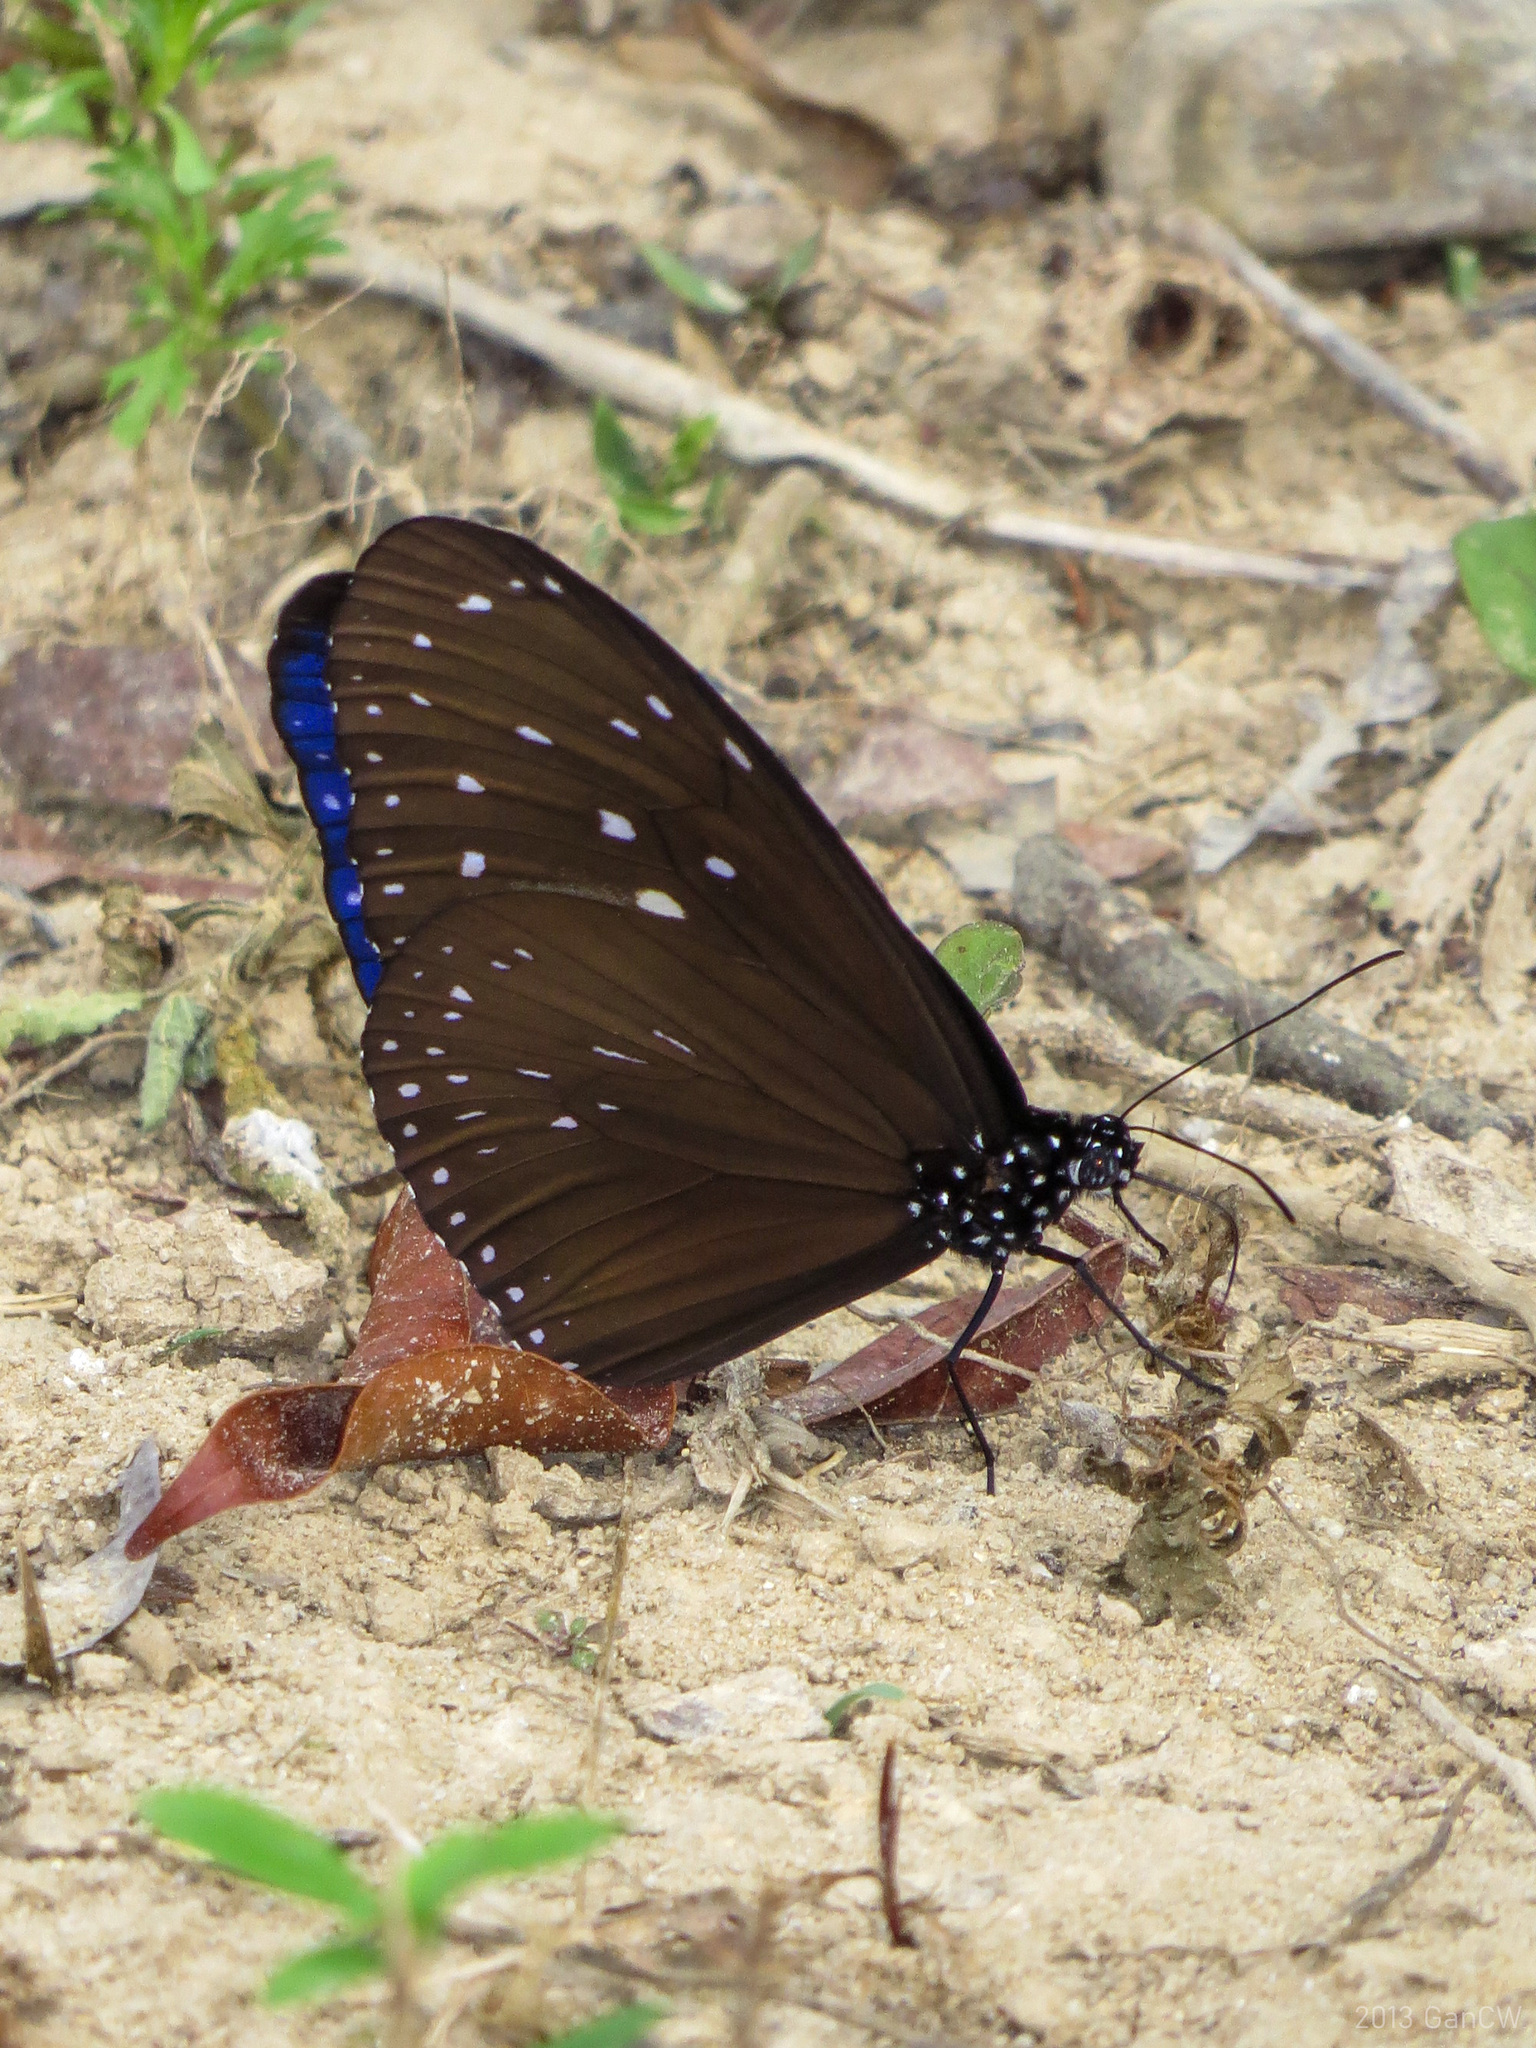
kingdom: Animalia
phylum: Arthropoda
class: Insecta
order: Lepidoptera
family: Nymphalidae
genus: Euploea
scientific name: Euploea mulciber
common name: Striped blue crow butterfly
